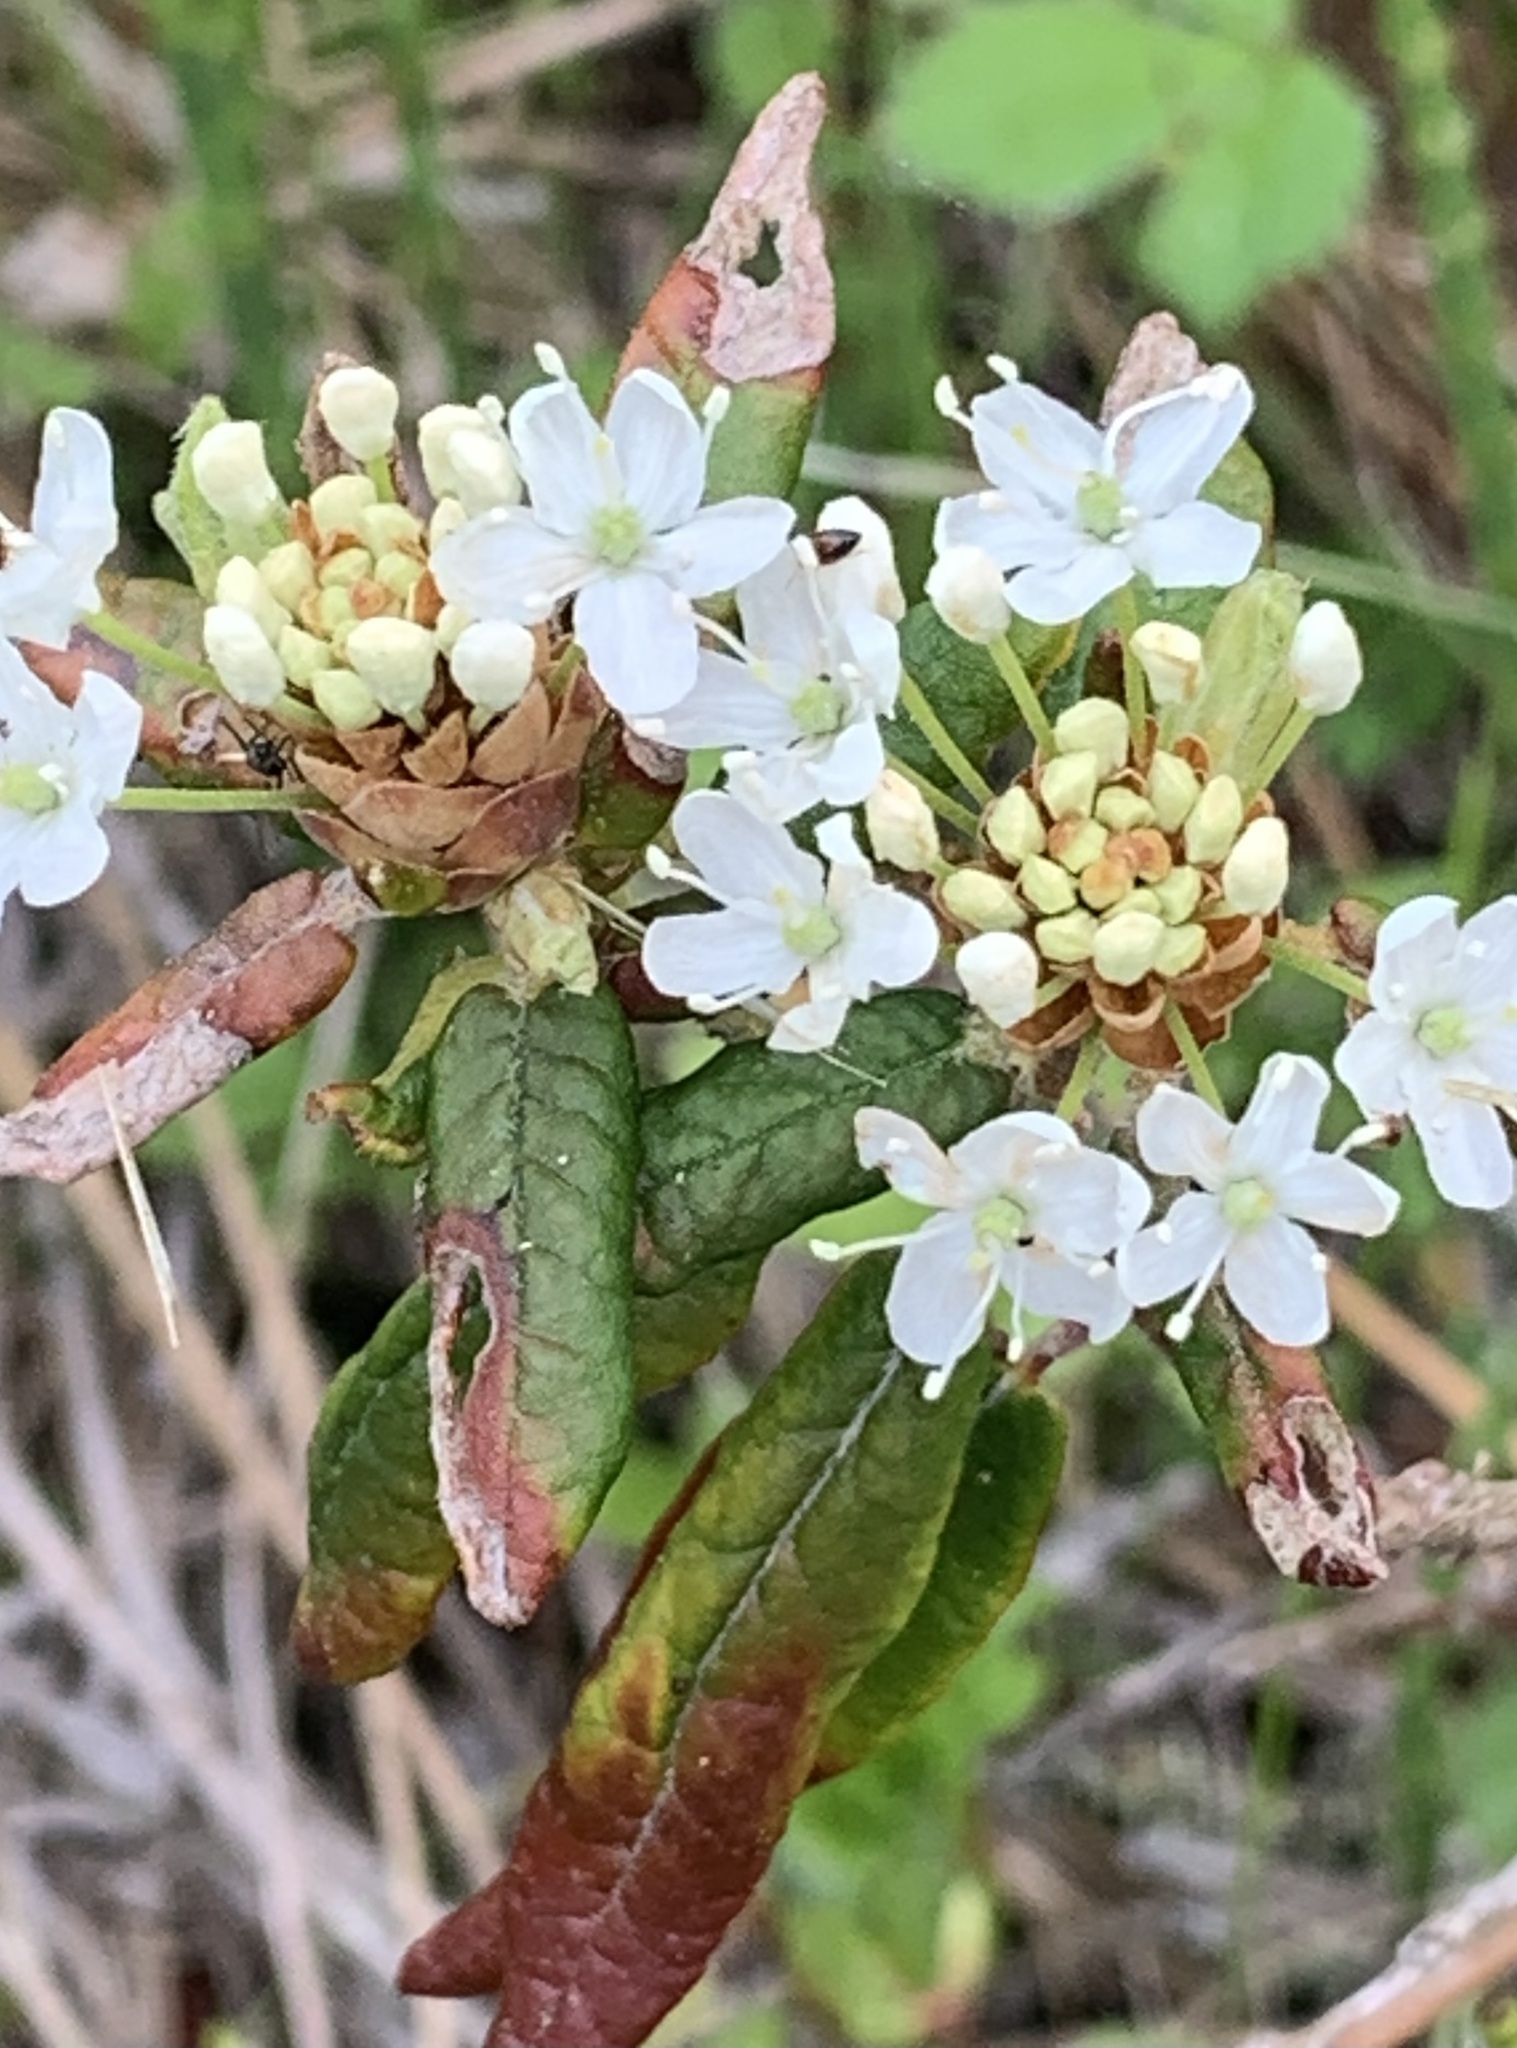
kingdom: Plantae
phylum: Tracheophyta
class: Magnoliopsida
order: Ericales
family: Ericaceae
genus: Rhododendron
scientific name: Rhododendron groenlandicum
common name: Bog labrador tea
